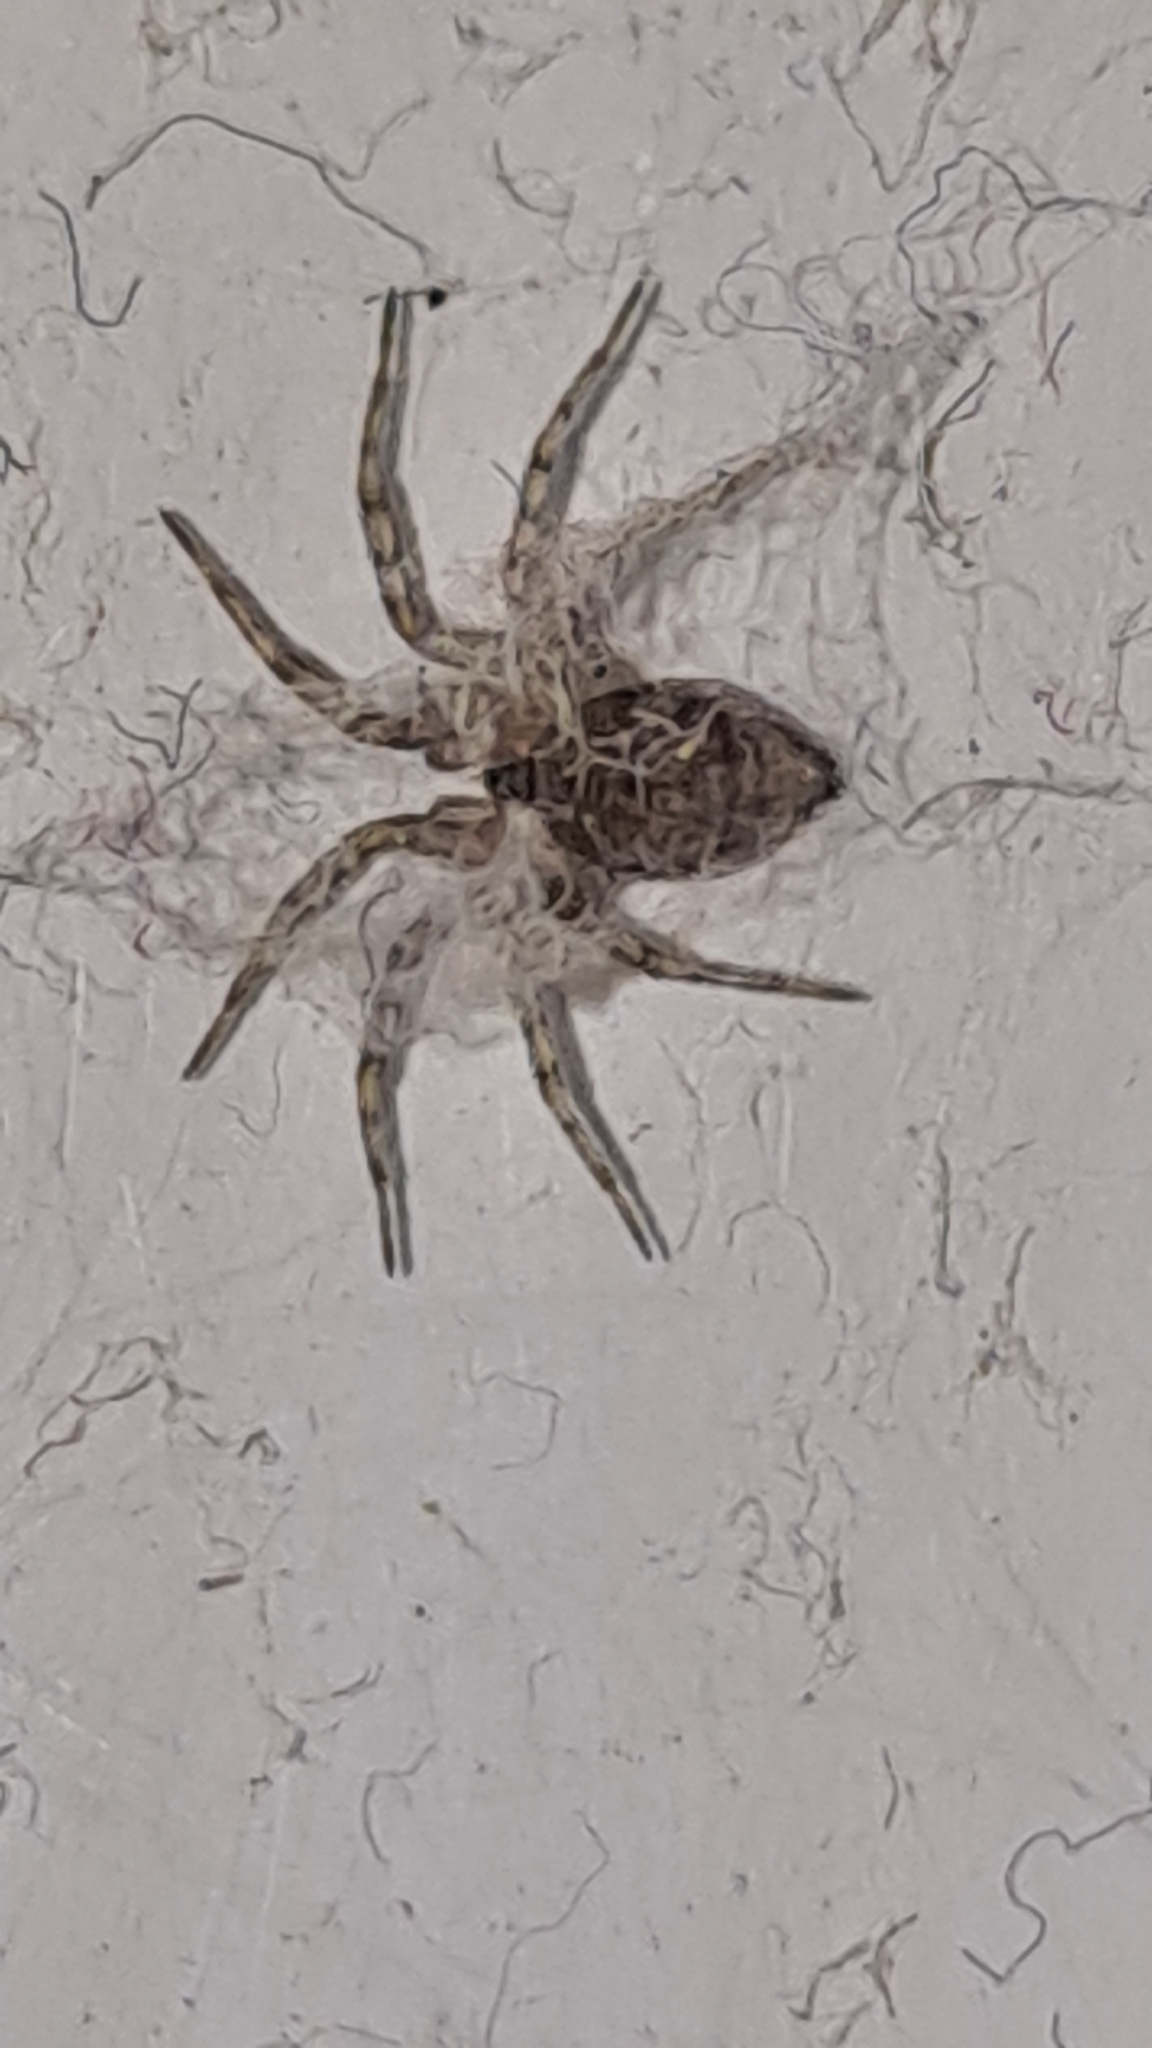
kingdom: Animalia
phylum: Arthropoda
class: Arachnida
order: Araneae
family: Oecobiidae
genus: Oecobius
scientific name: Oecobius navus
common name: Flatmesh weaver
